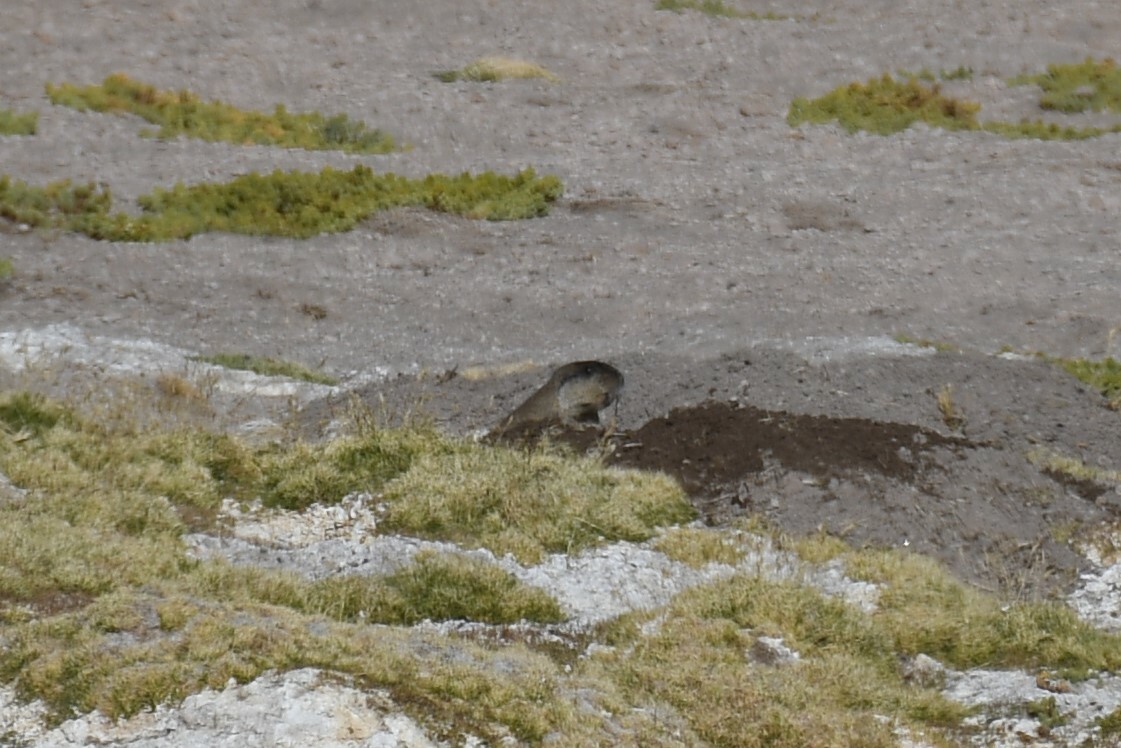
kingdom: Animalia
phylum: Chordata
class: Mammalia
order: Rodentia
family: Ctenomyidae
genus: Ctenomys
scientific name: Ctenomys opimus
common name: Highland tuco-tuco
